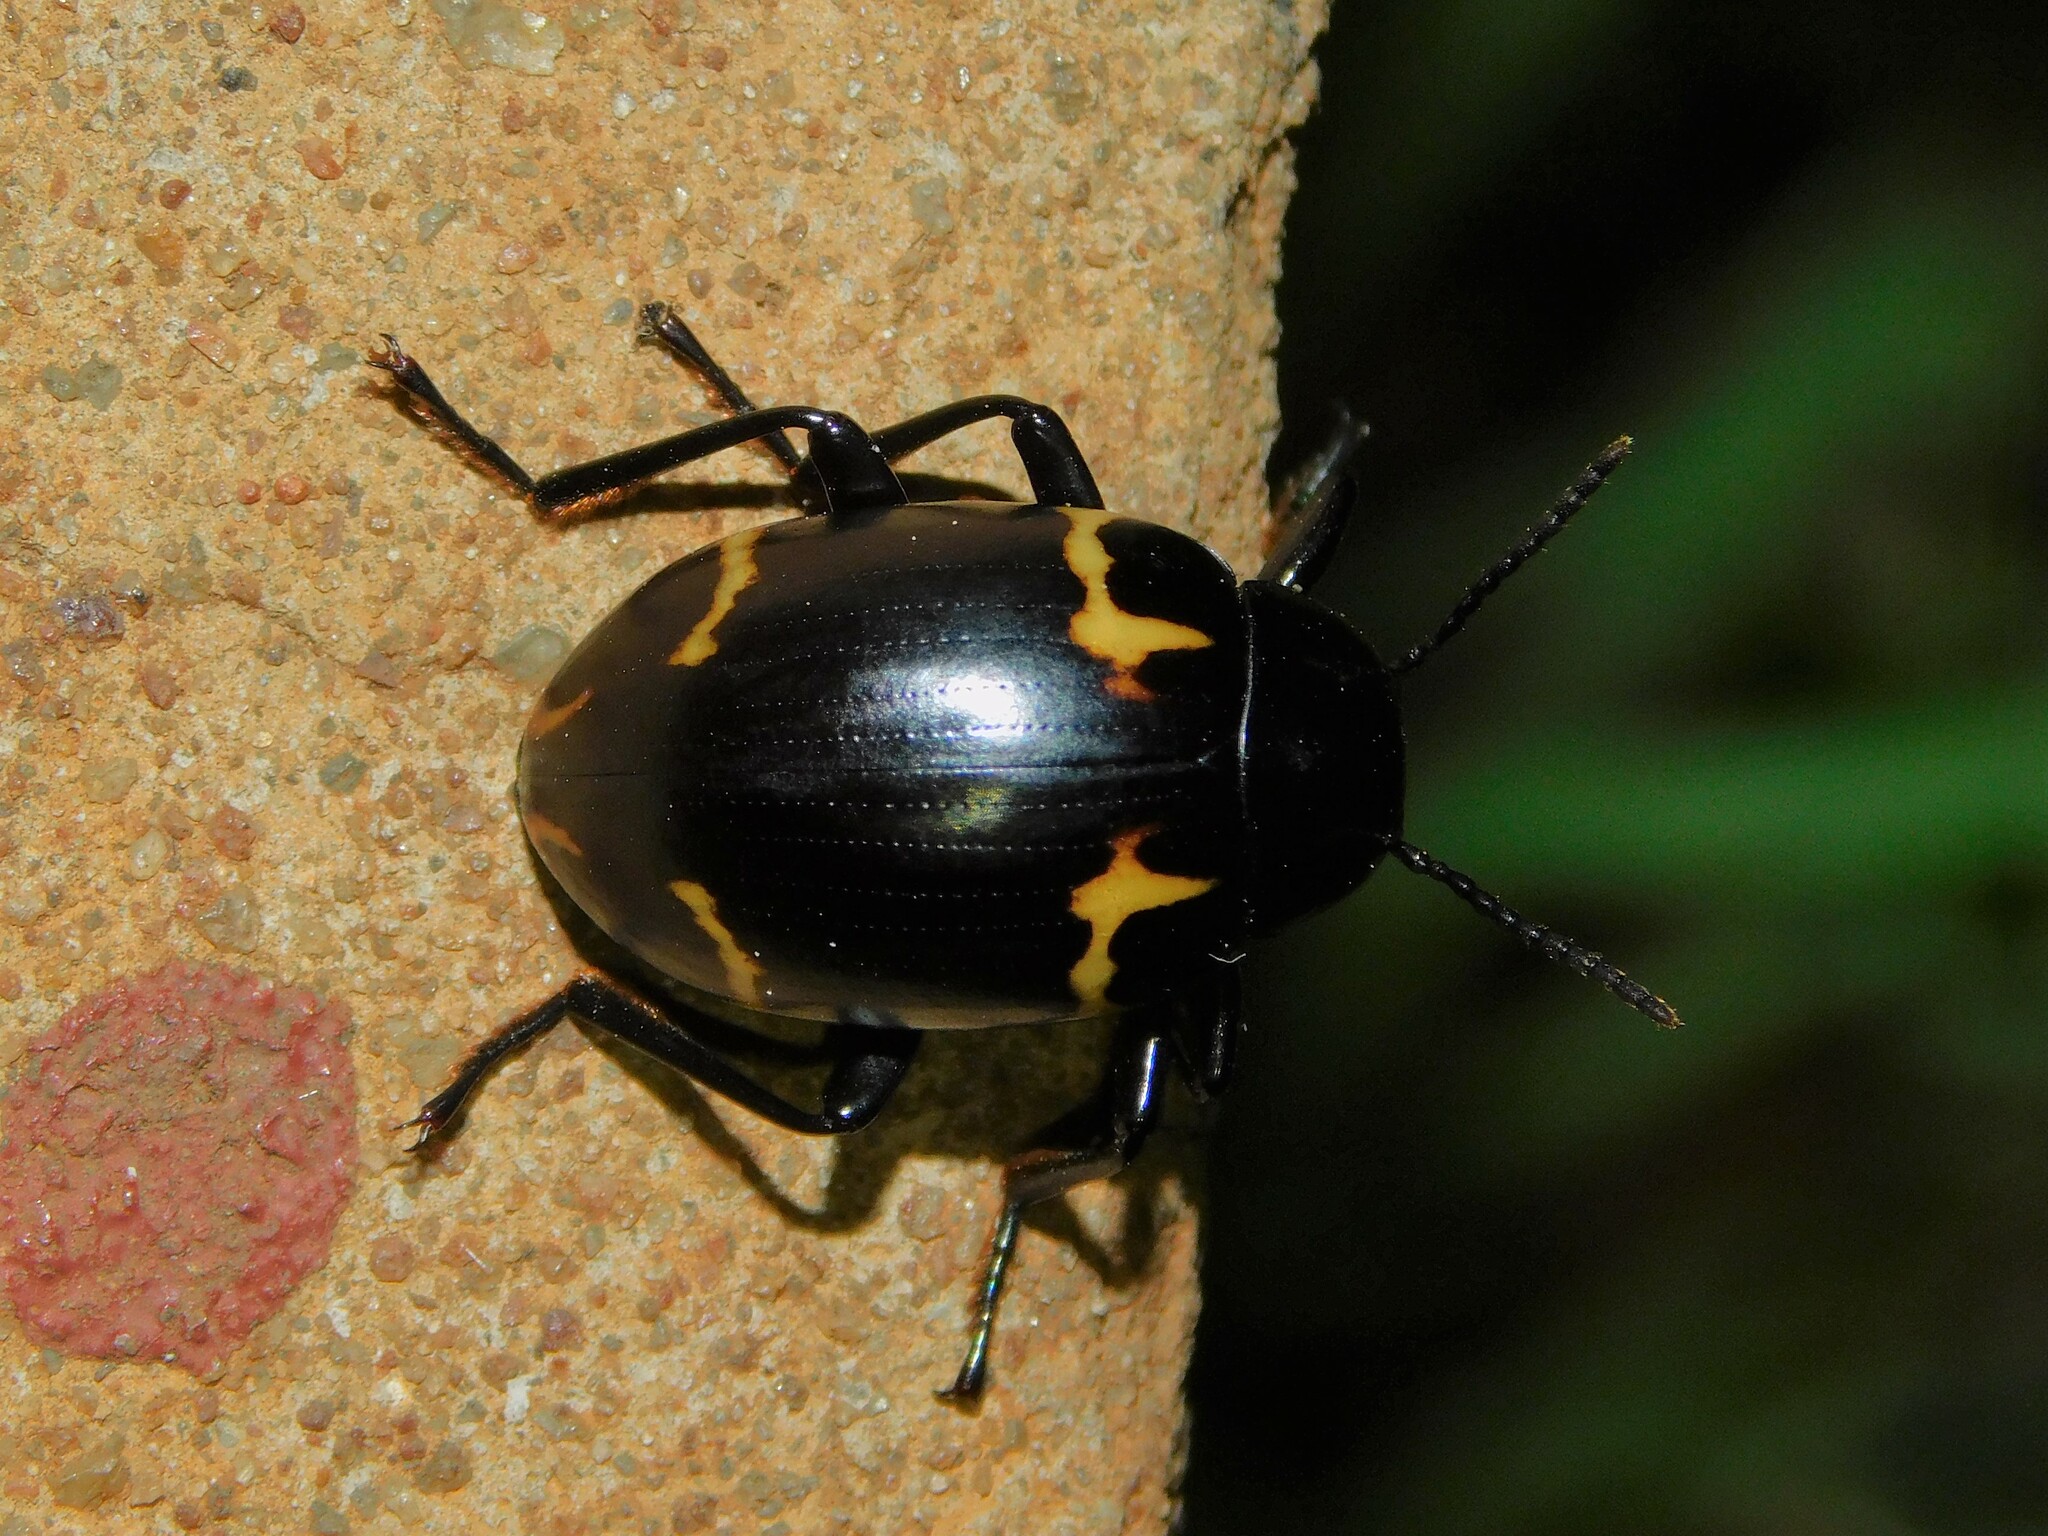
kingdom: Animalia
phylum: Arthropoda
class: Insecta
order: Coleoptera
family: Tenebrionidae
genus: Hypamarygmus
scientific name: Hypamarygmus
